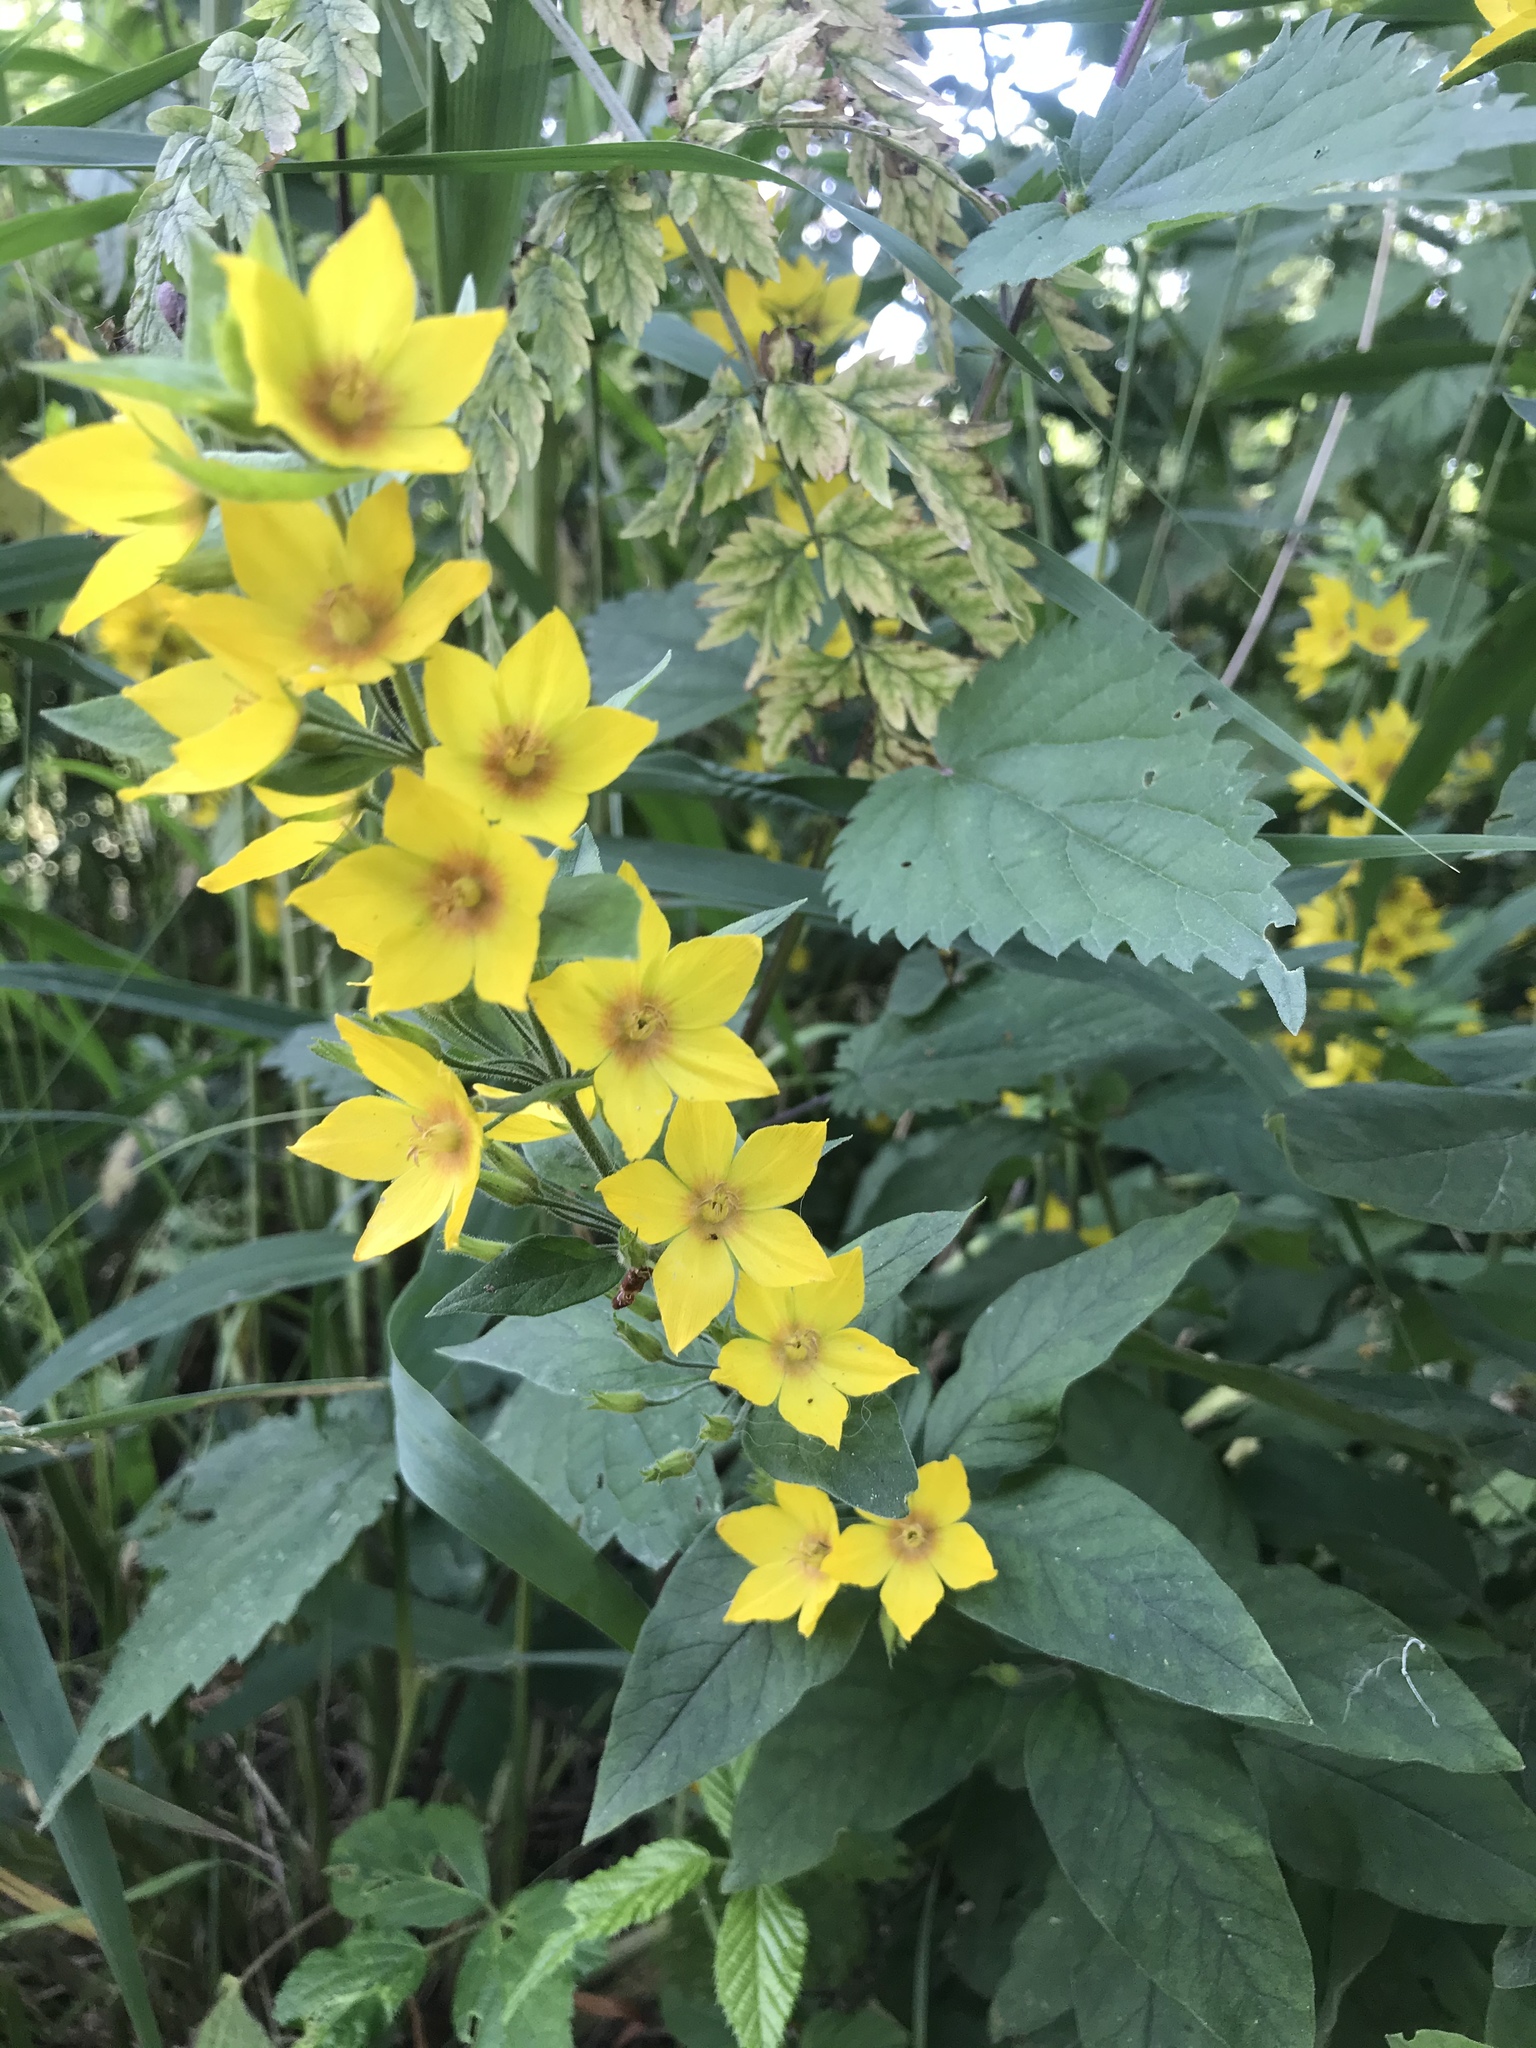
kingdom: Plantae
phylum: Tracheophyta
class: Magnoliopsida
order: Ericales
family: Primulaceae
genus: Lysimachia
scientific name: Lysimachia punctata
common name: Dotted loosestrife
